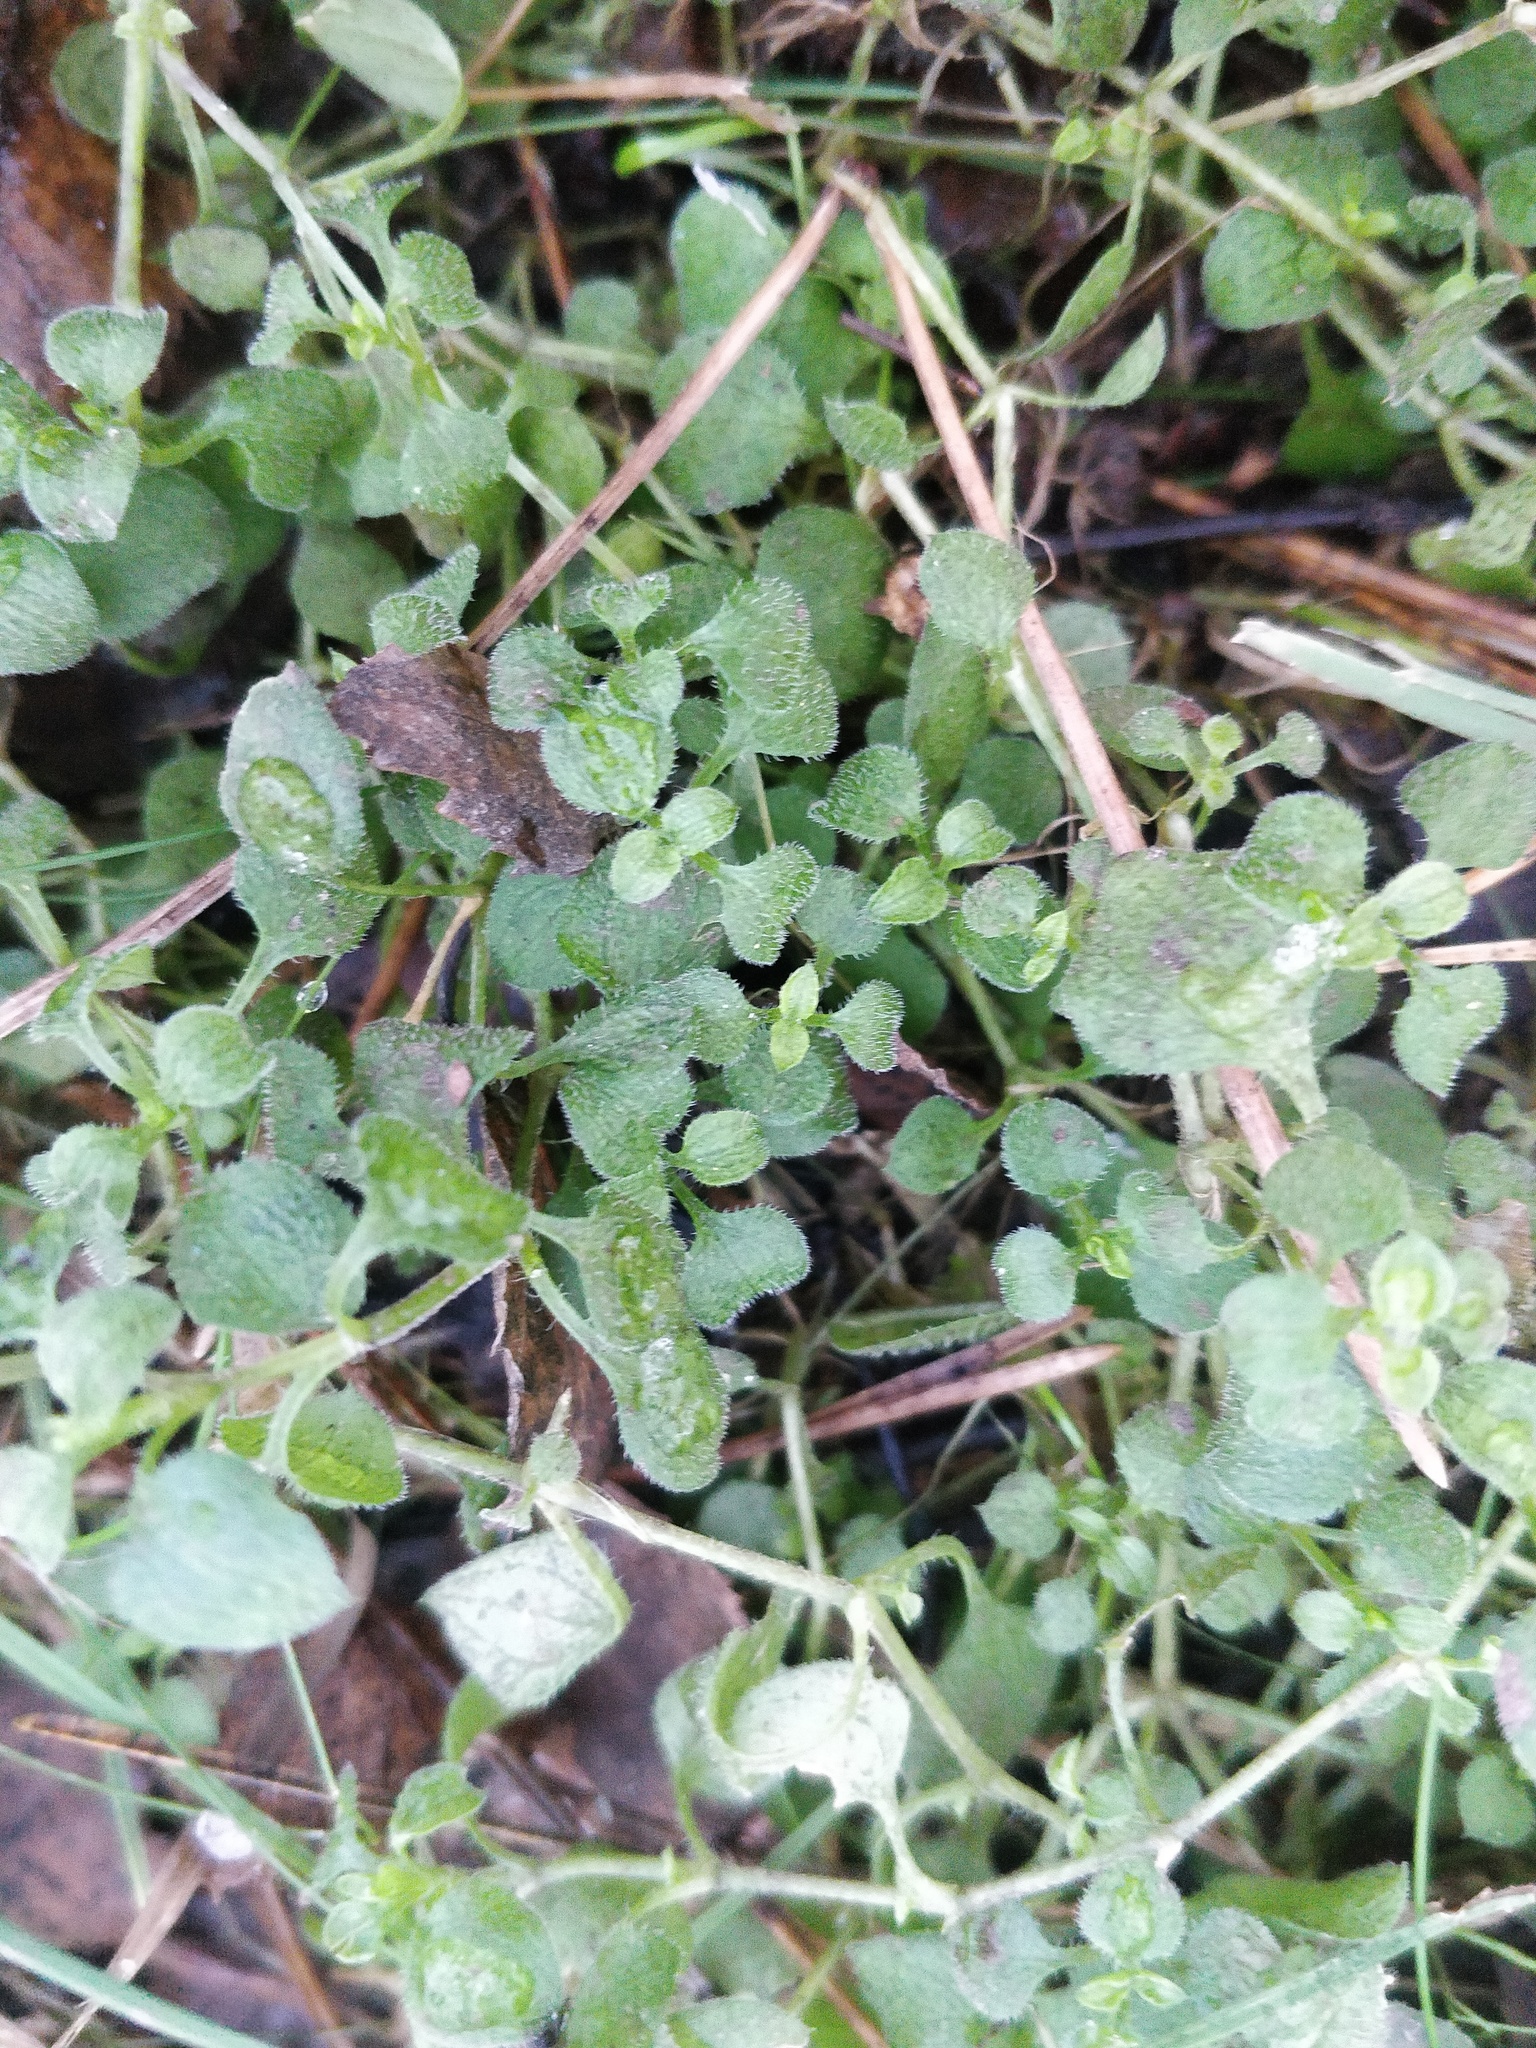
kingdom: Plantae
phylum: Tracheophyta
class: Magnoliopsida
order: Caryophyllales
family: Caryophyllaceae
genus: Moehringia
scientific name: Moehringia trinervia
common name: Three-nerved sandwort
